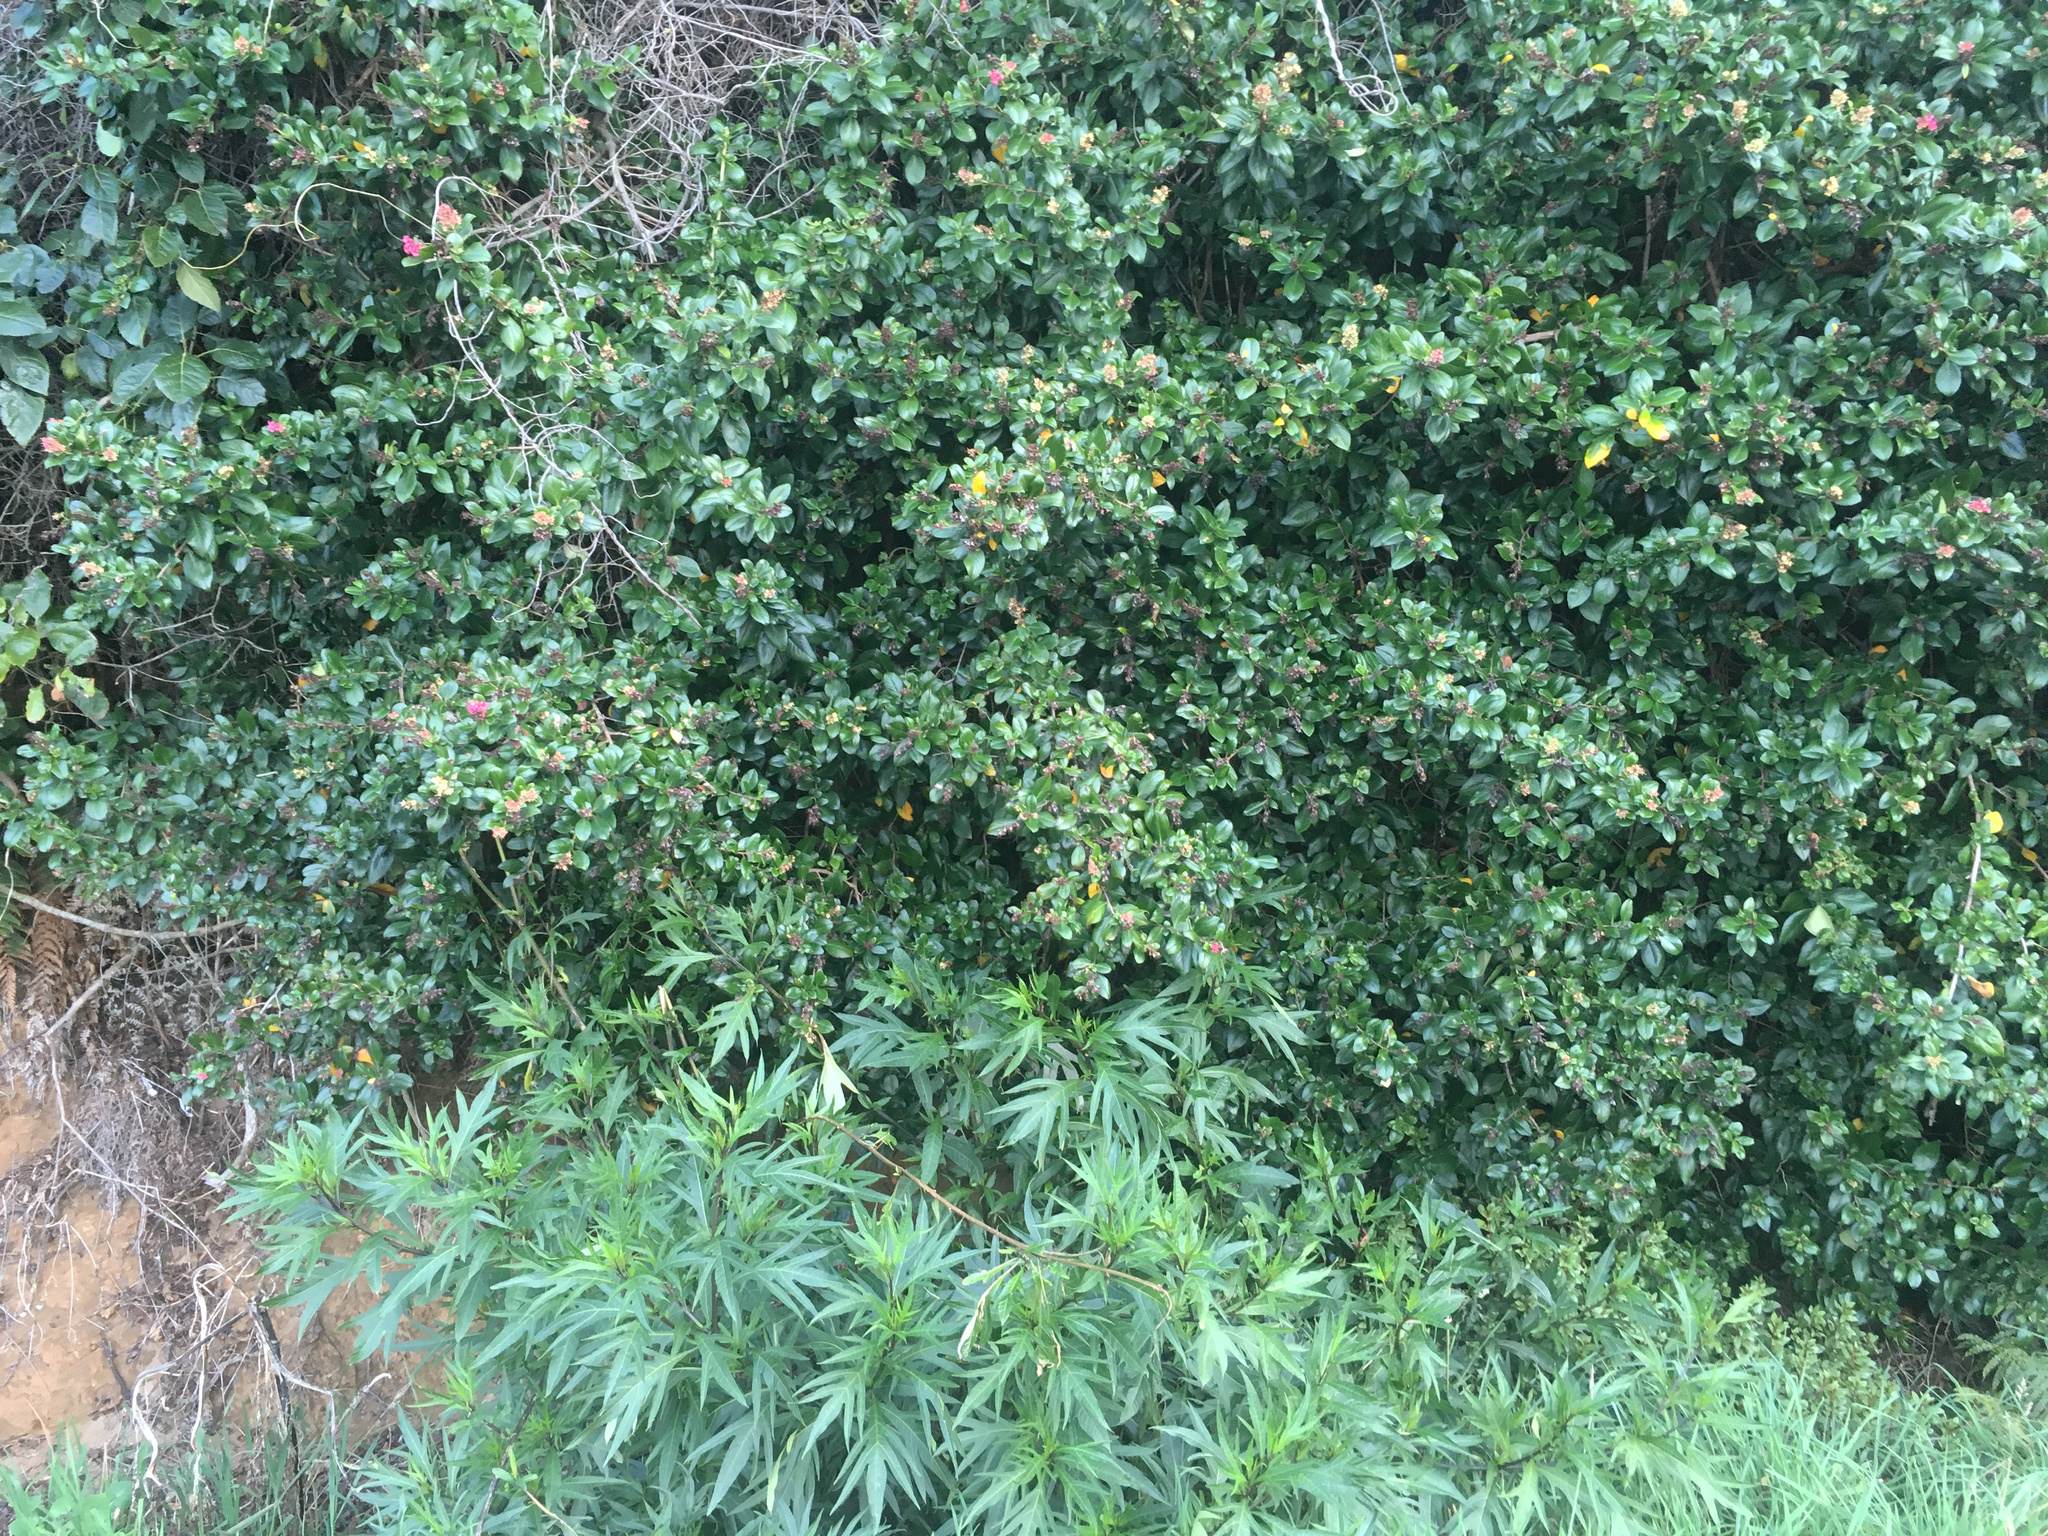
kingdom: Plantae
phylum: Tracheophyta
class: Magnoliopsida
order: Escalloniales
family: Escalloniaceae
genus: Escallonia
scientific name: Escallonia rubra
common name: Redclaws
